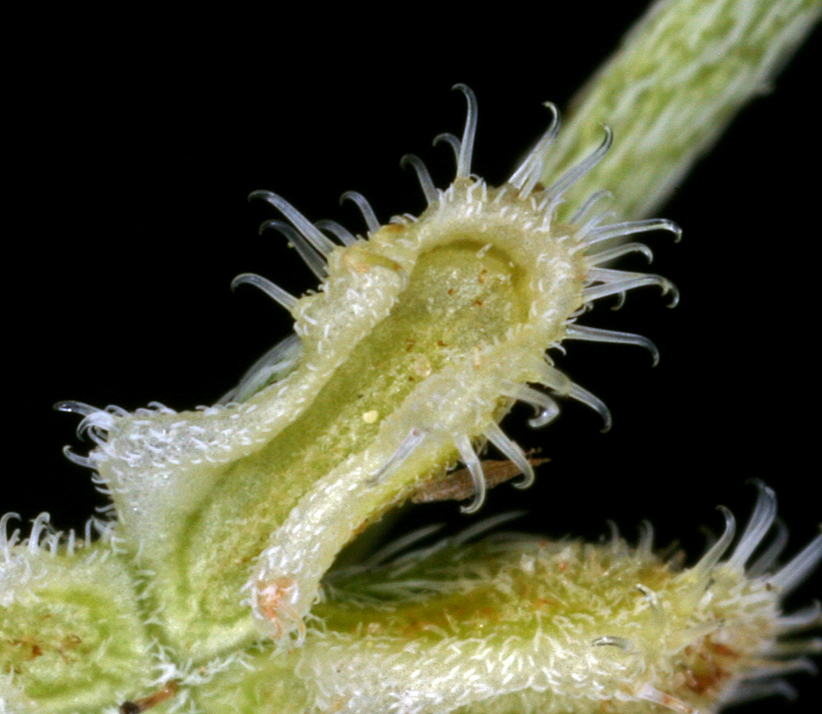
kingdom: Plantae
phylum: Tracheophyta
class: Magnoliopsida
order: Boraginales
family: Boraginaceae
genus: Pectocarya
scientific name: Pectocarya penicillata
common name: Short-leaved combseed
